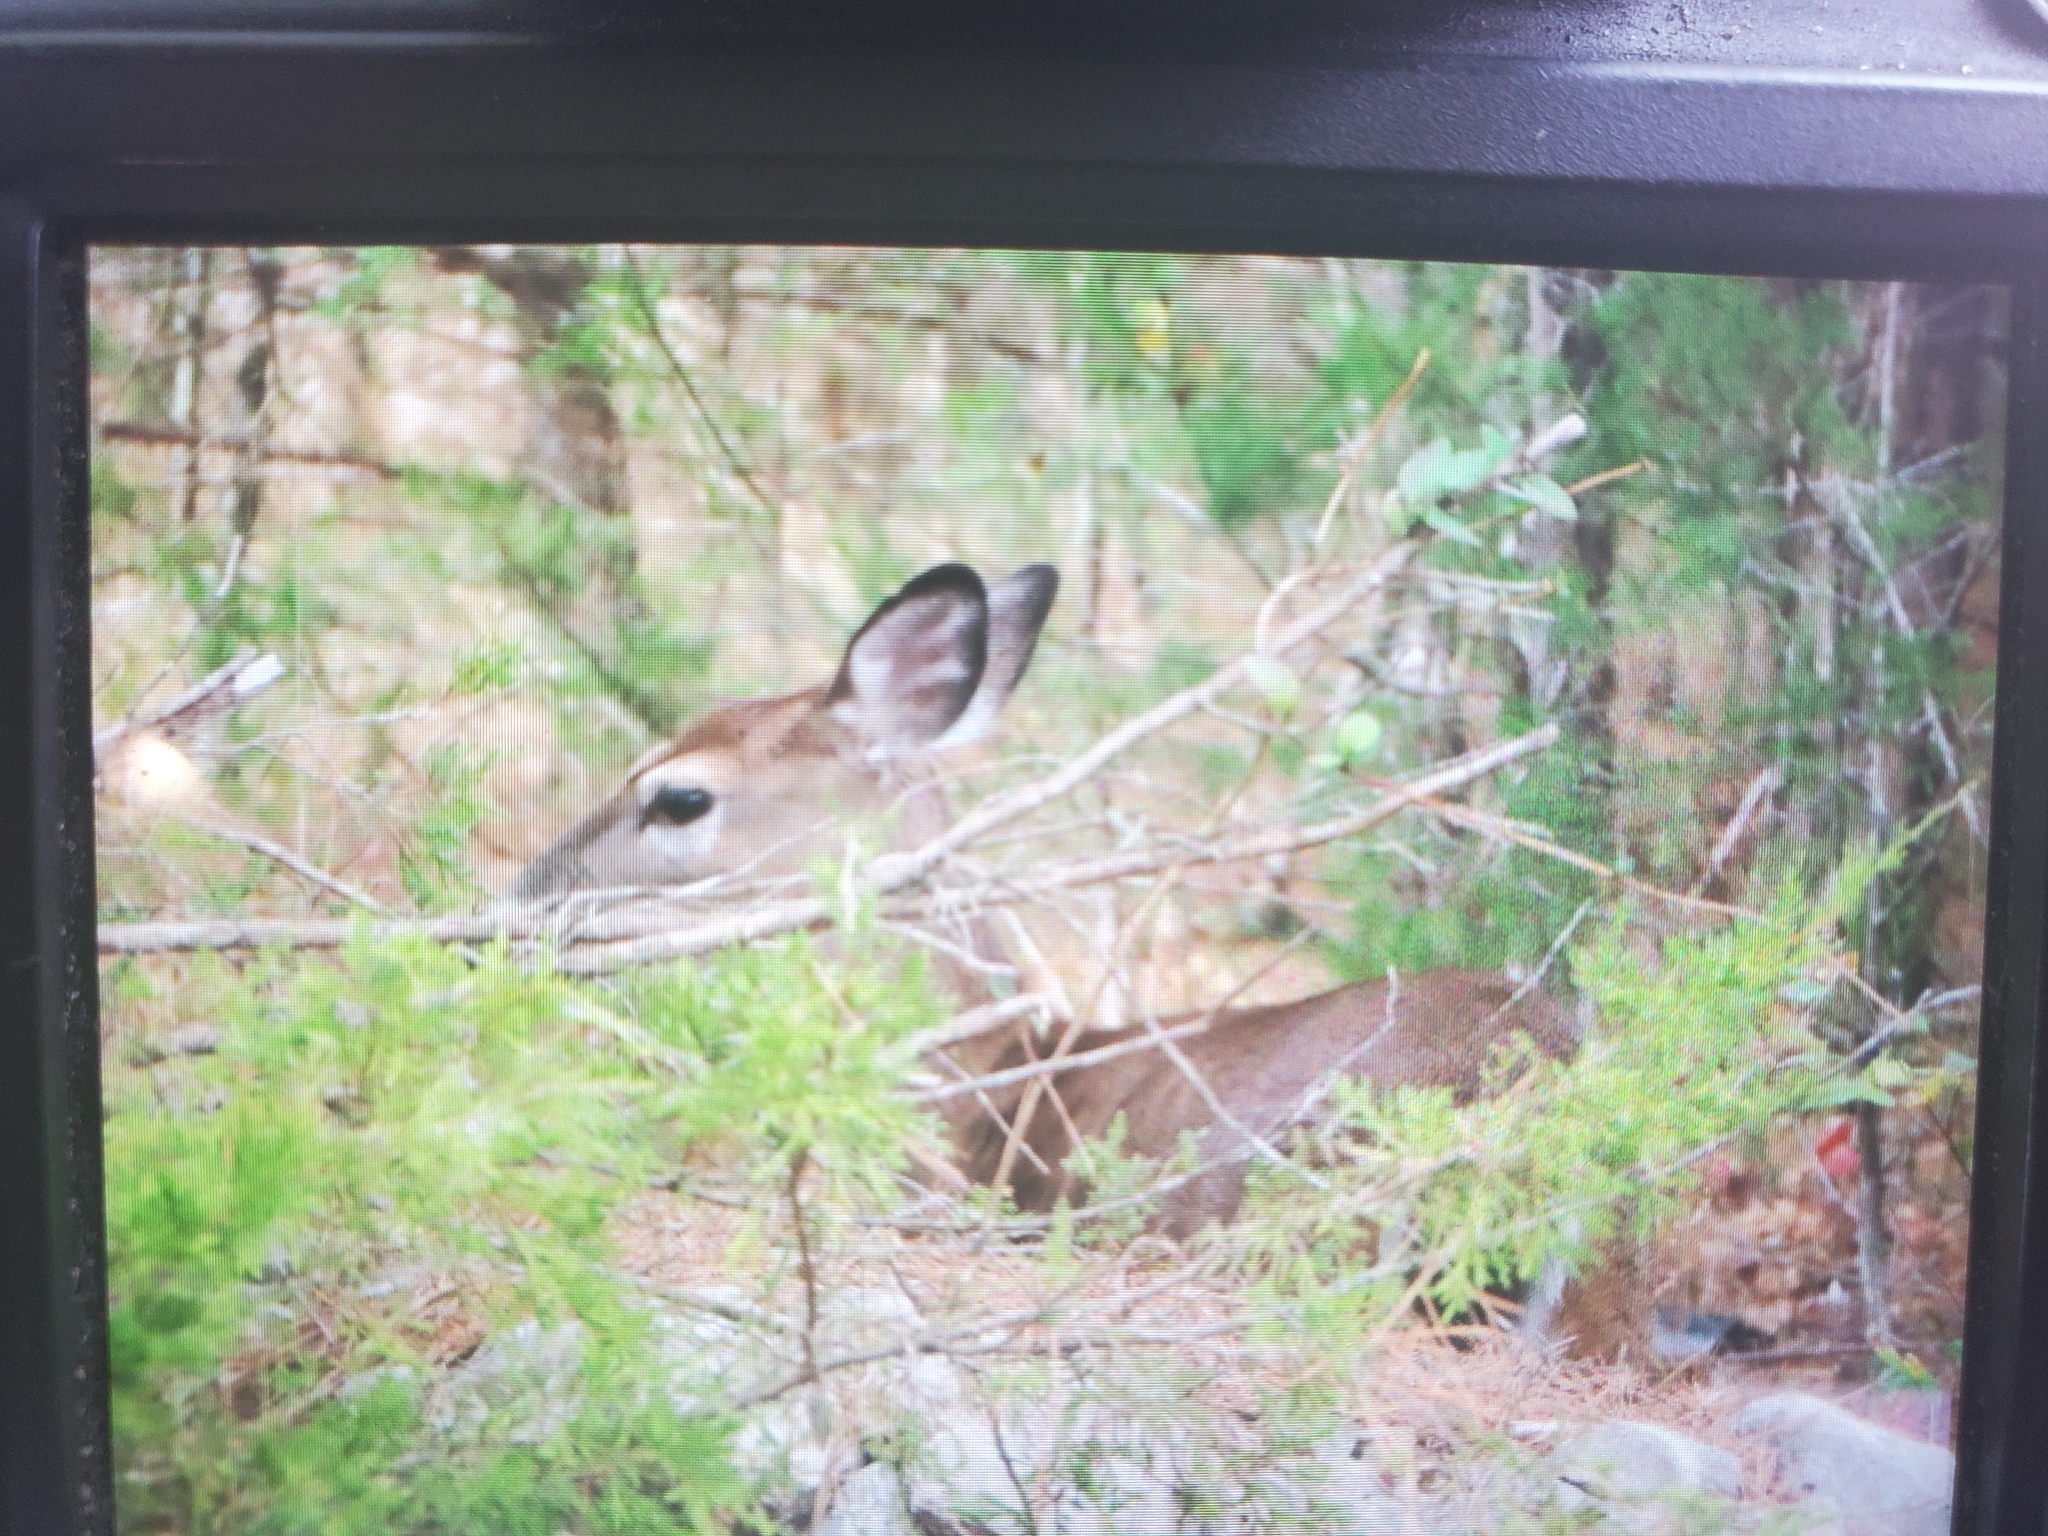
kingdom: Animalia
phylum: Chordata
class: Mammalia
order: Artiodactyla
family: Cervidae
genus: Odocoileus
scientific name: Odocoileus virginianus
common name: White-tailed deer
